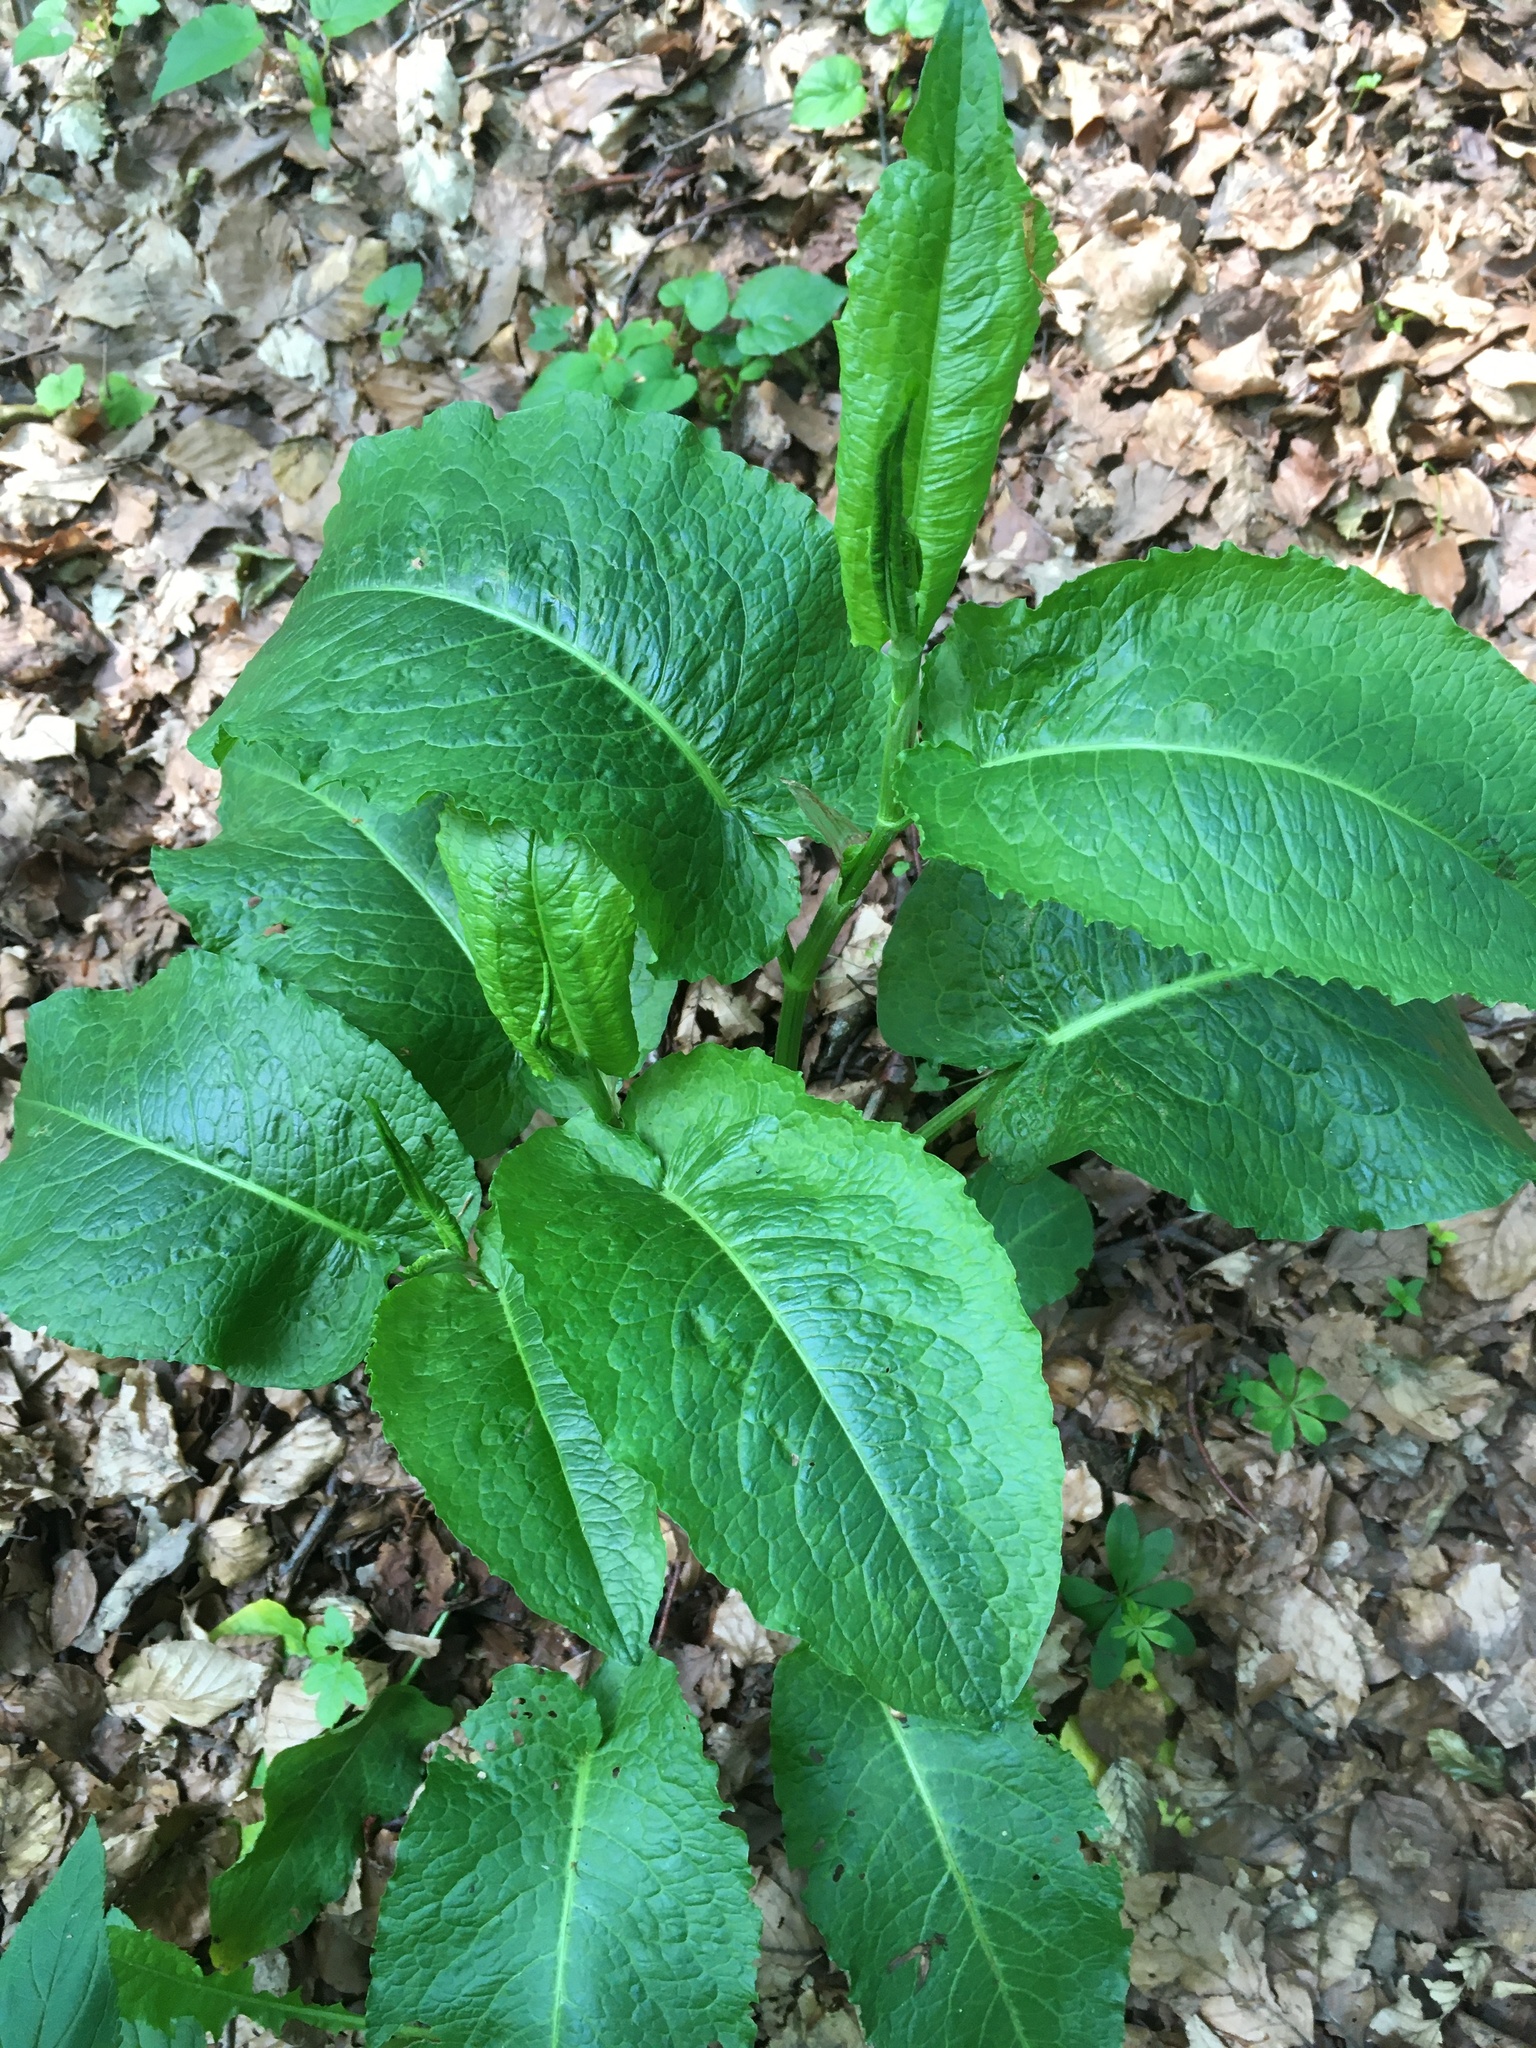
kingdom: Plantae
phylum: Tracheophyta
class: Magnoliopsida
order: Caryophyllales
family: Polygonaceae
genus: Rumex
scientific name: Rumex obtusifolius
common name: Bitter dock
